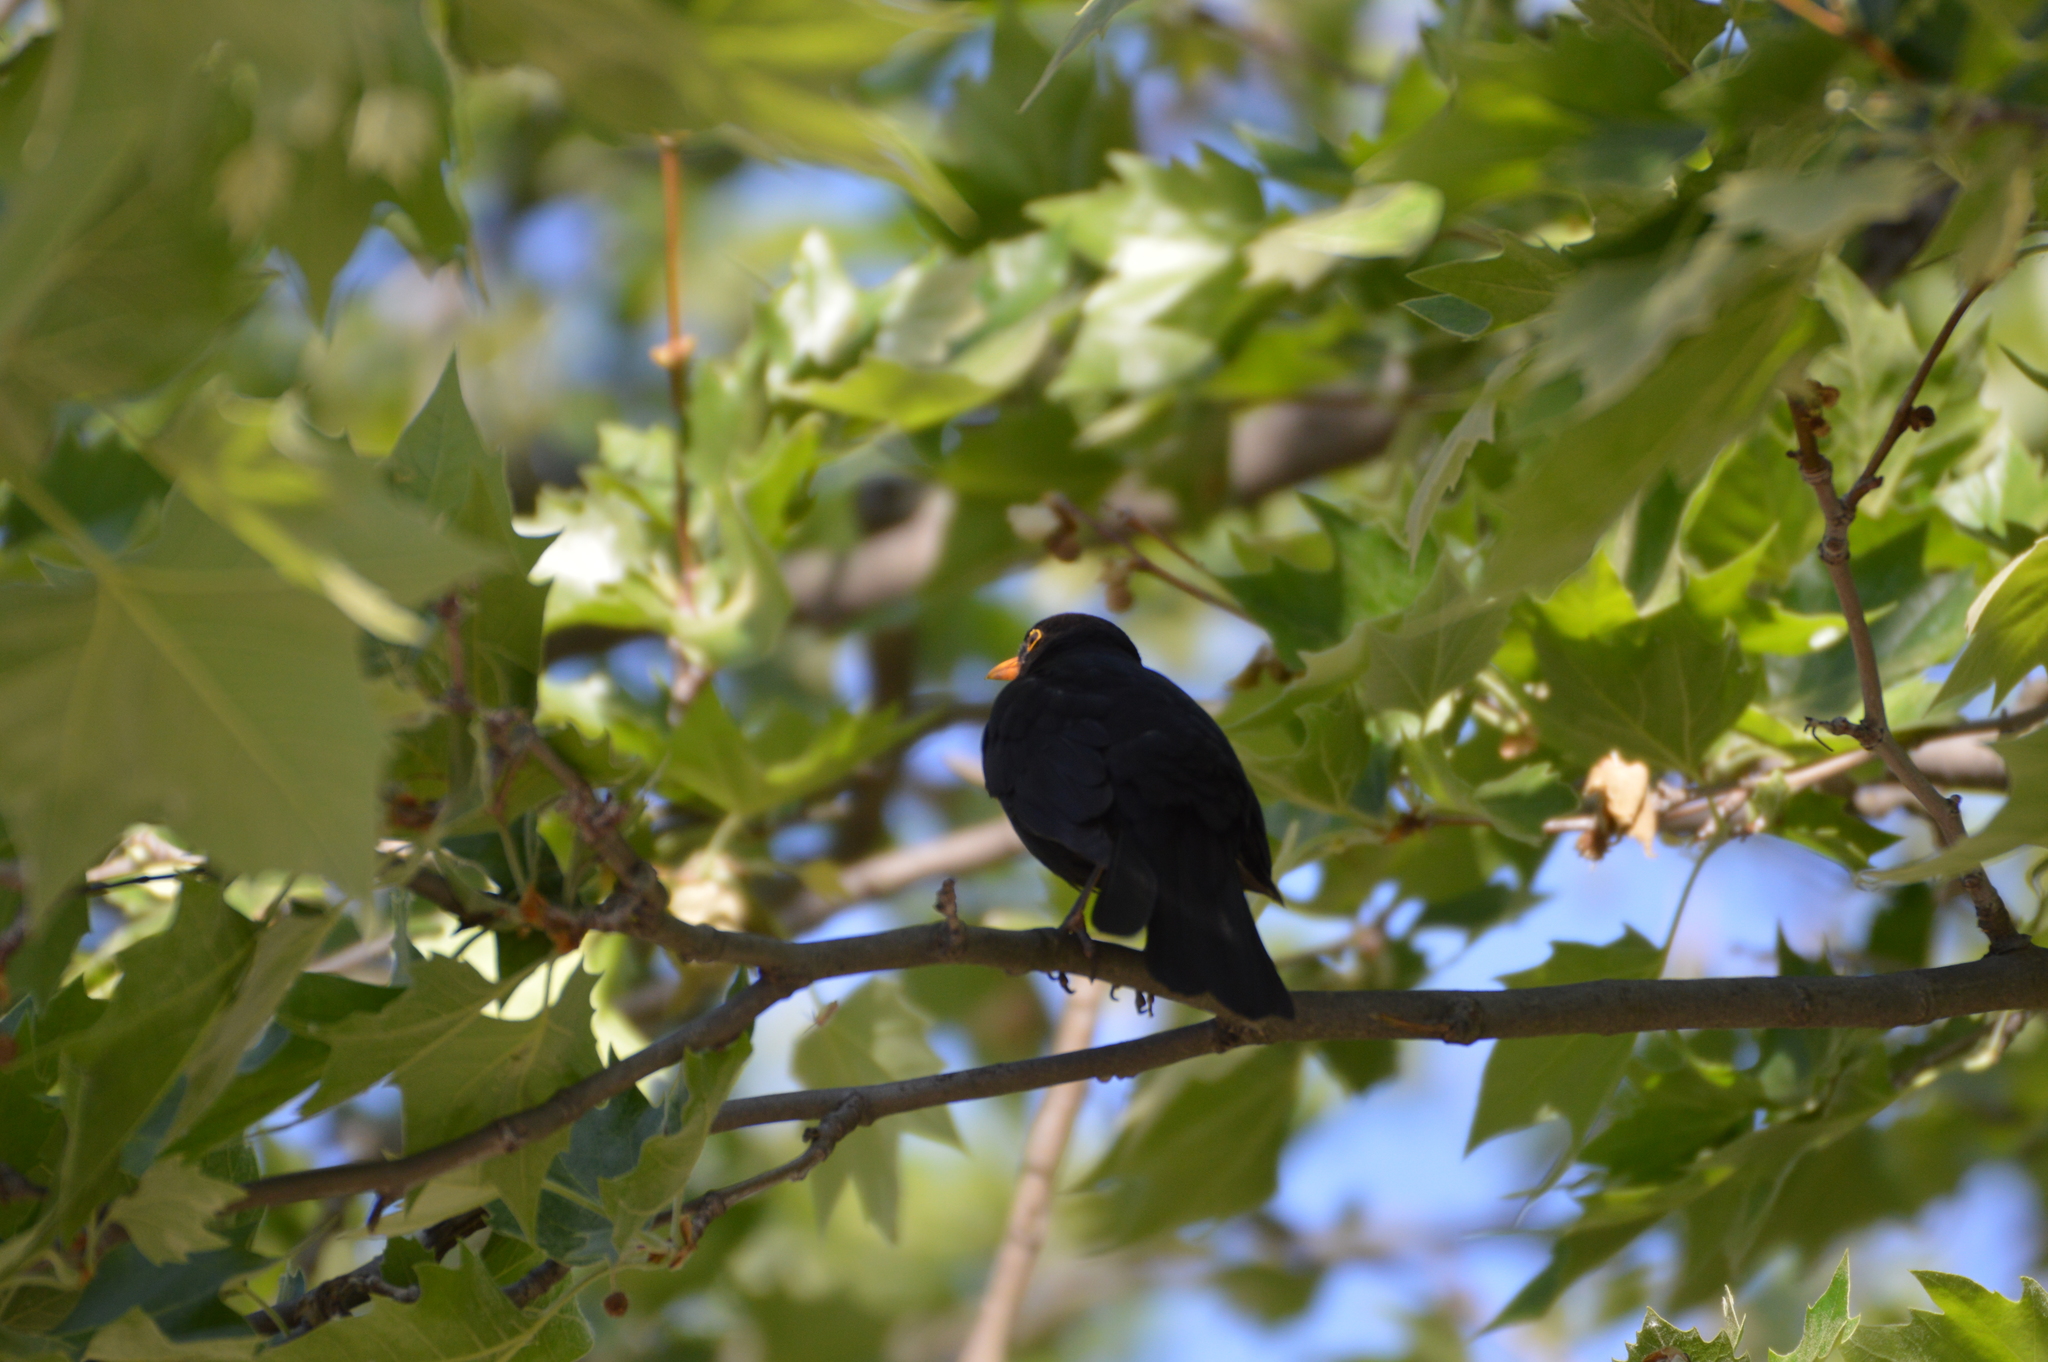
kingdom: Animalia
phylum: Chordata
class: Aves
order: Passeriformes
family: Turdidae
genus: Turdus
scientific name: Turdus merula
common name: Common blackbird
